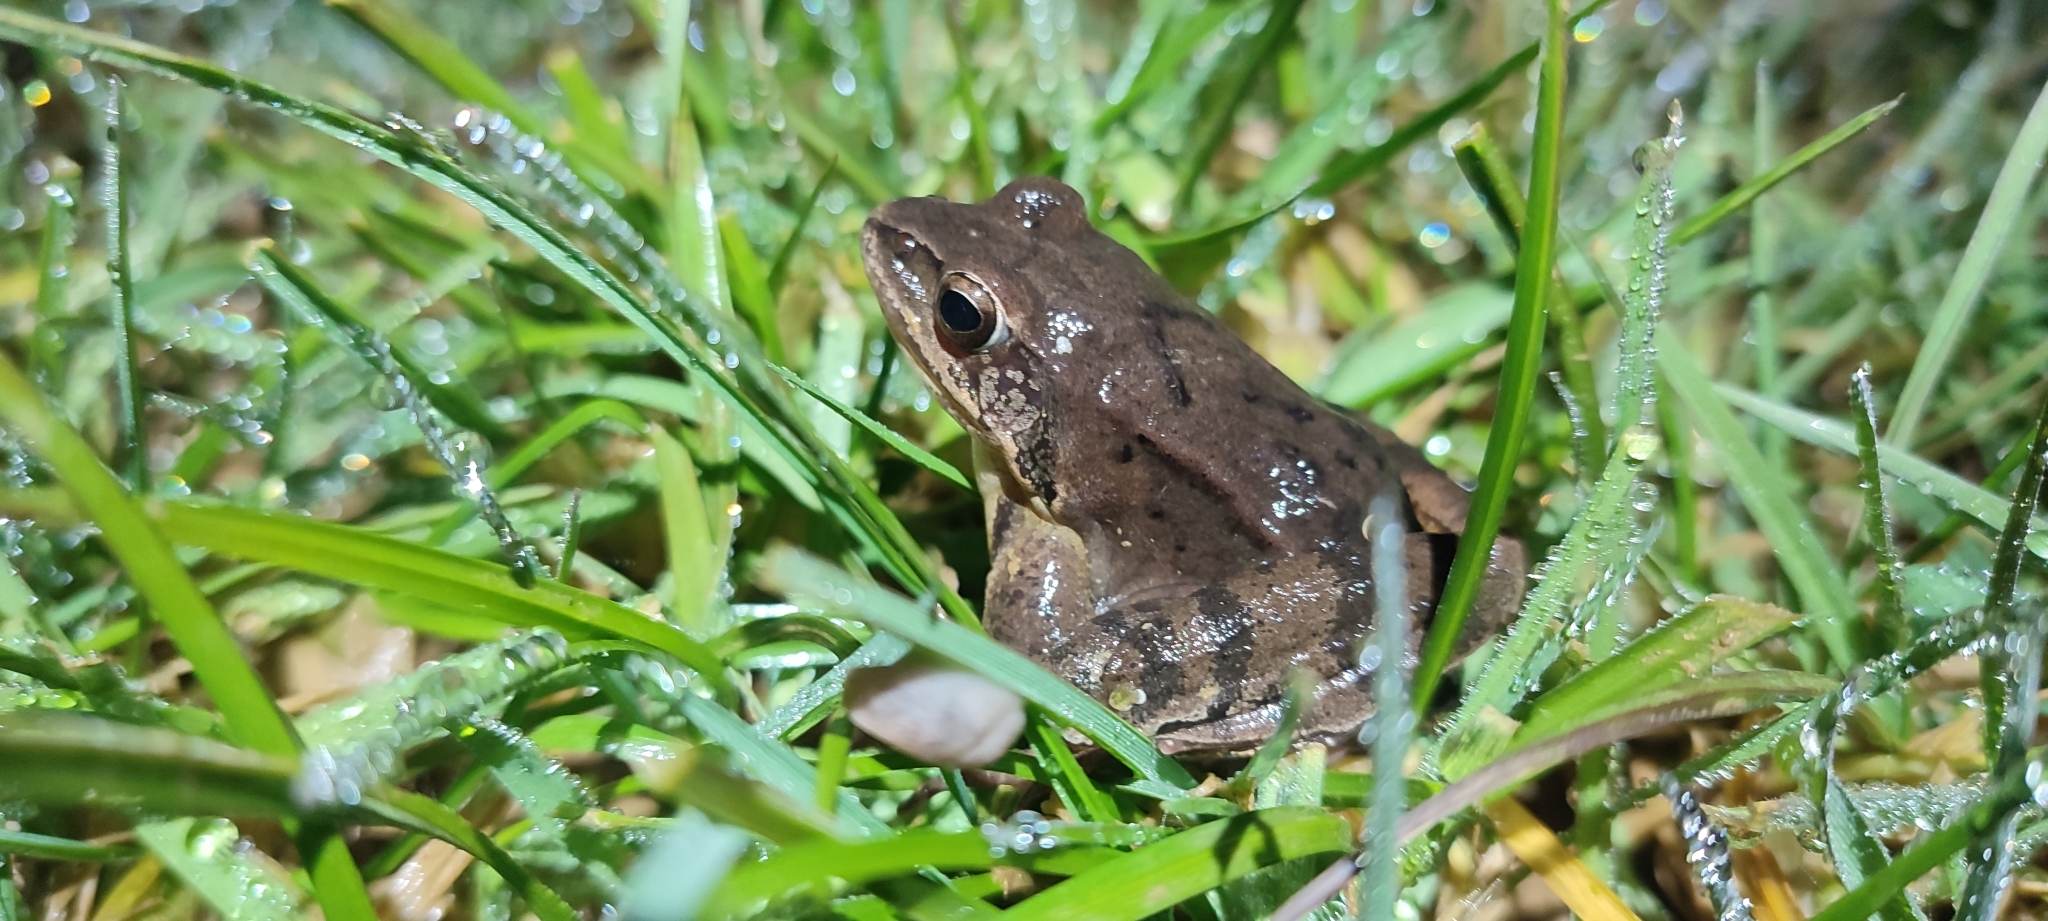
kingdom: Animalia
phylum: Chordata
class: Amphibia
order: Anura
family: Ranidae
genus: Rana
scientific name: Rana dalmatina
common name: Agile frog
